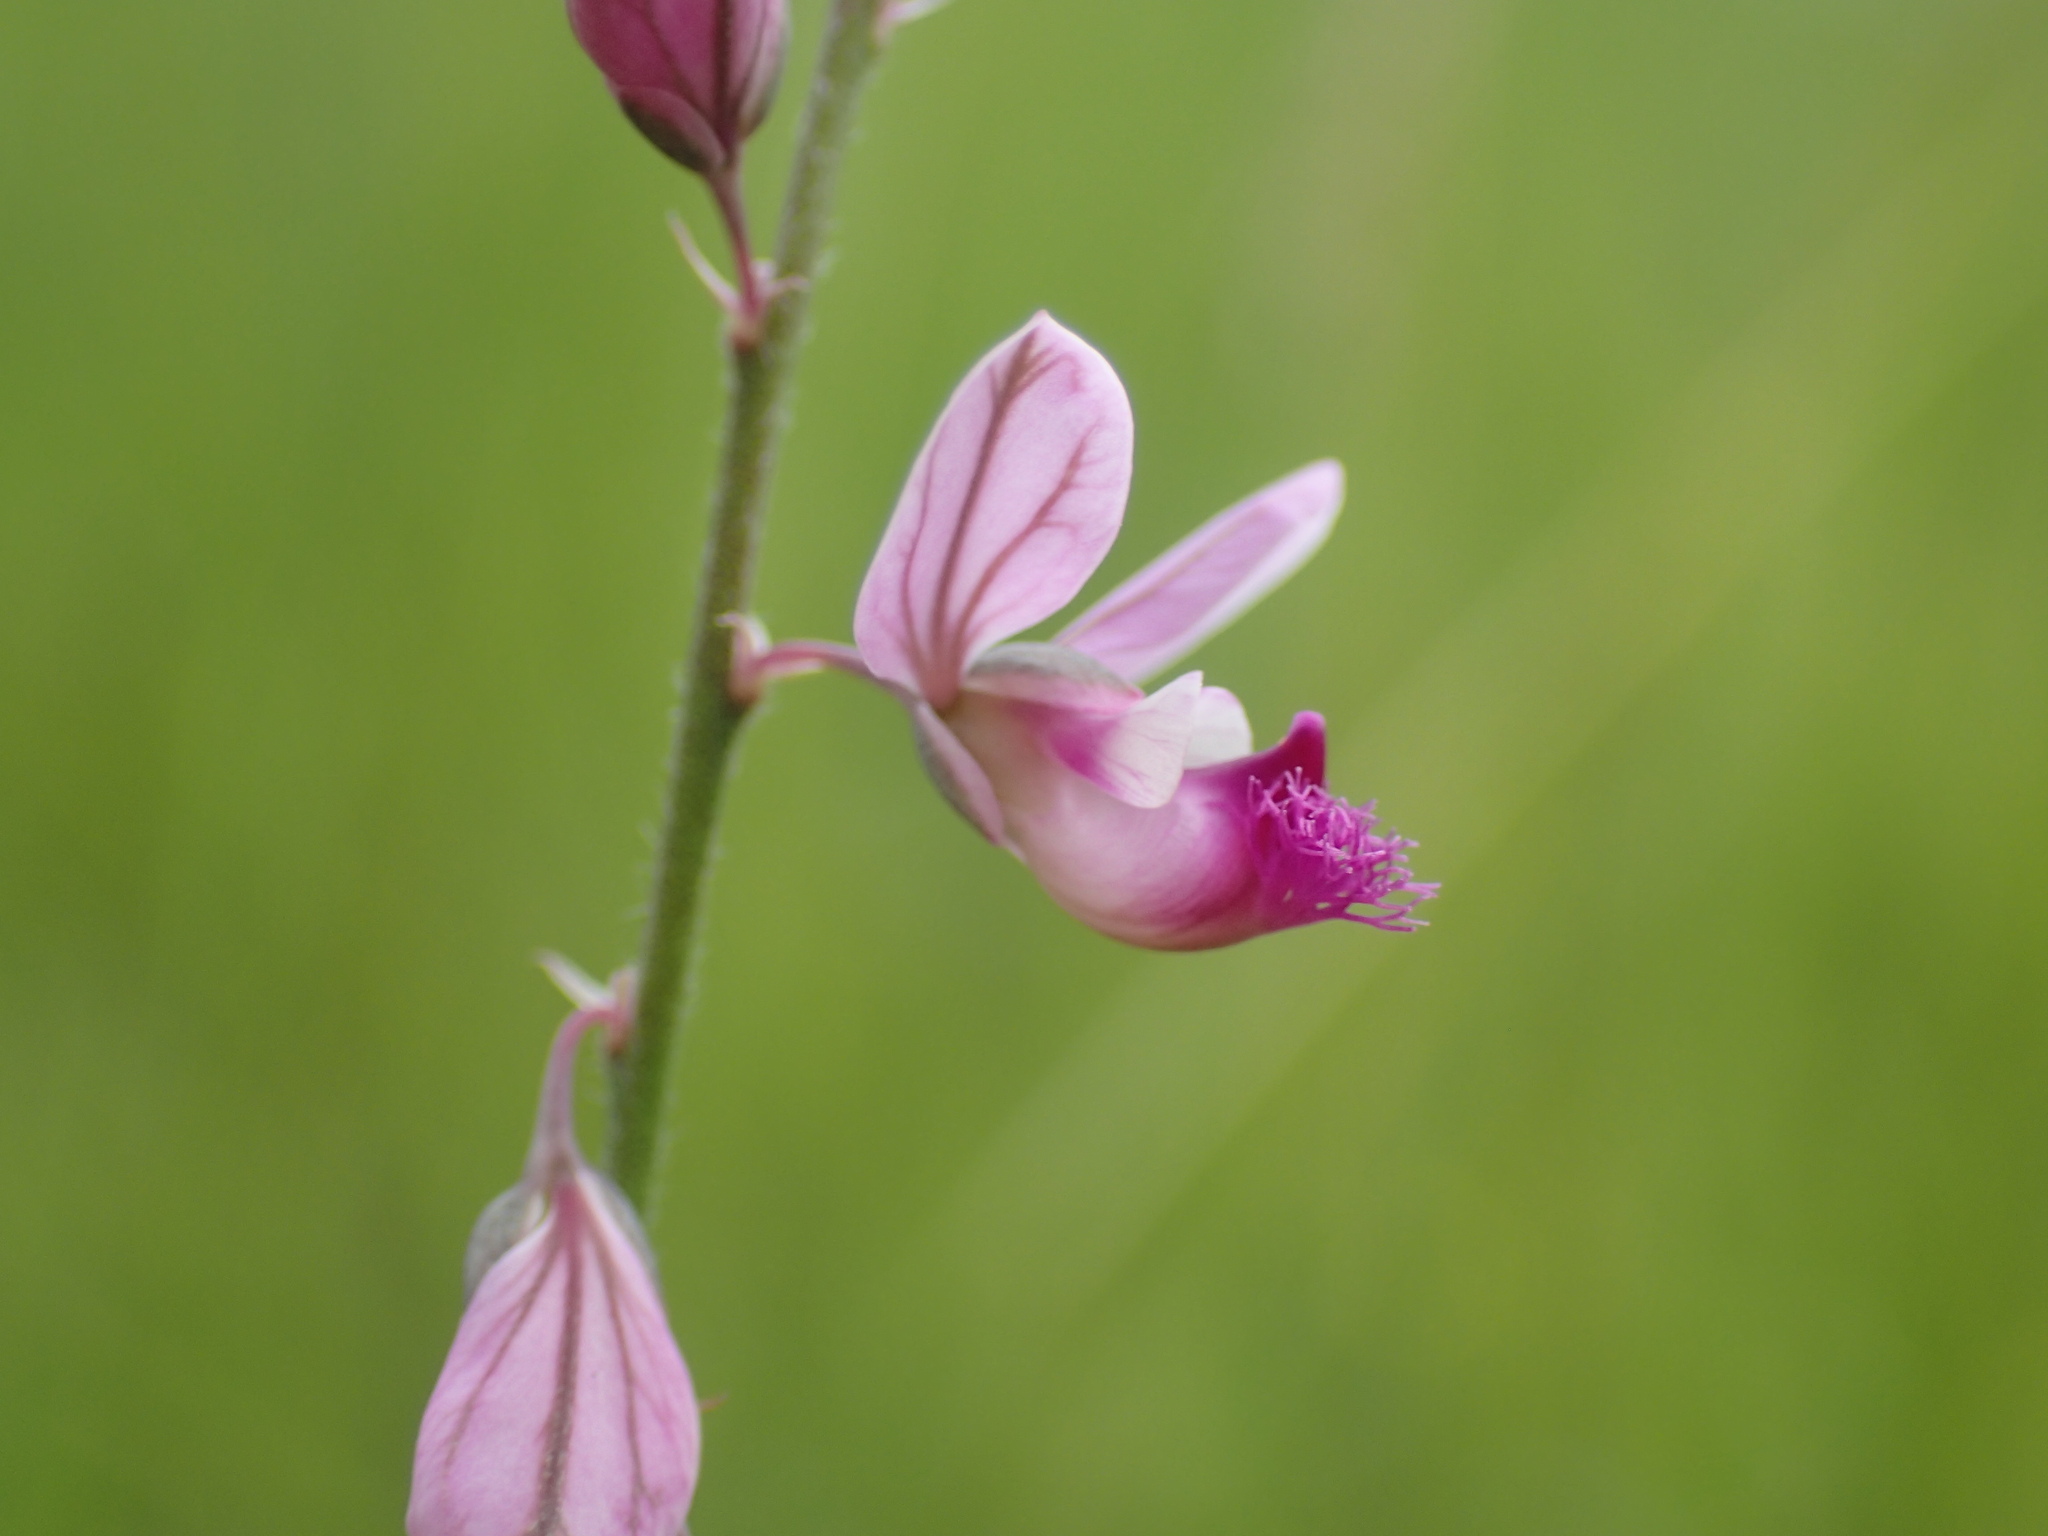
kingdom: Plantae
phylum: Tracheophyta
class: Magnoliopsida
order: Fabales
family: Polygalaceae
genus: Polygala
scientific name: Polygala hottentotta
